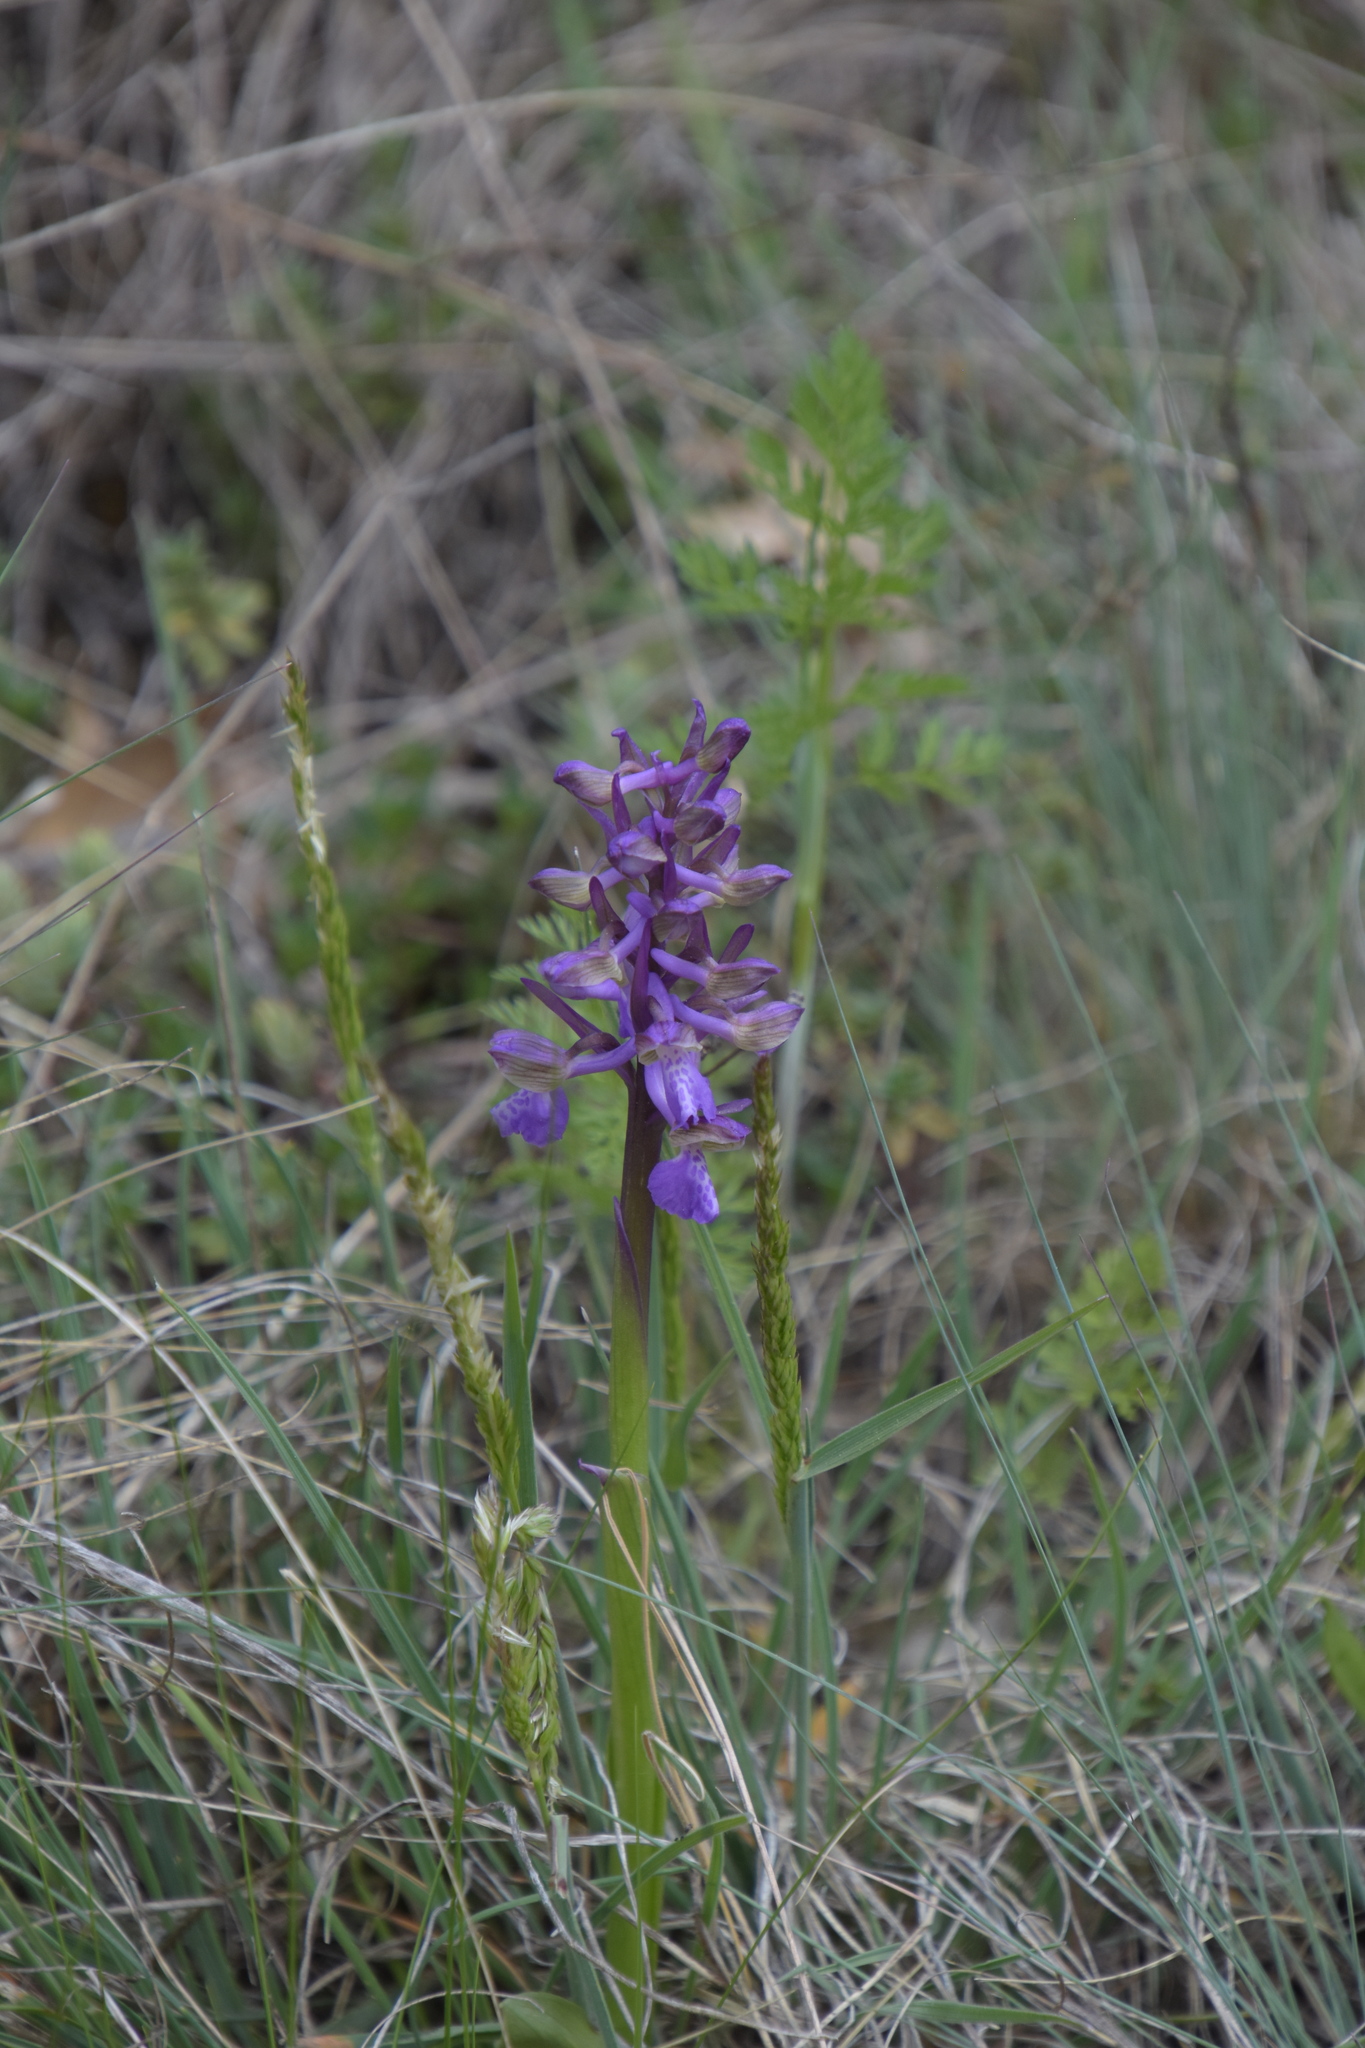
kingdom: Plantae
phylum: Tracheophyta
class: Liliopsida
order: Asparagales
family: Orchidaceae
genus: Anacamptis
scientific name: Anacamptis morio
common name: Green-winged orchid
